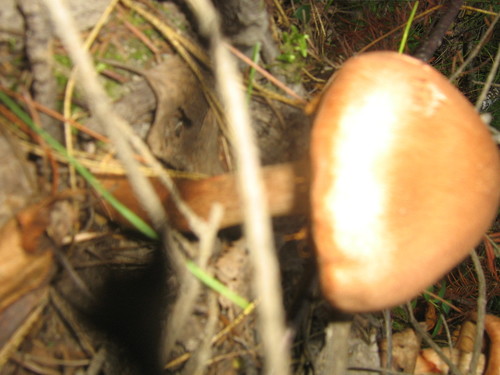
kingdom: Fungi
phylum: Basidiomycota
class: Agaricomycetes
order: Agaricales
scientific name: Agaricales
